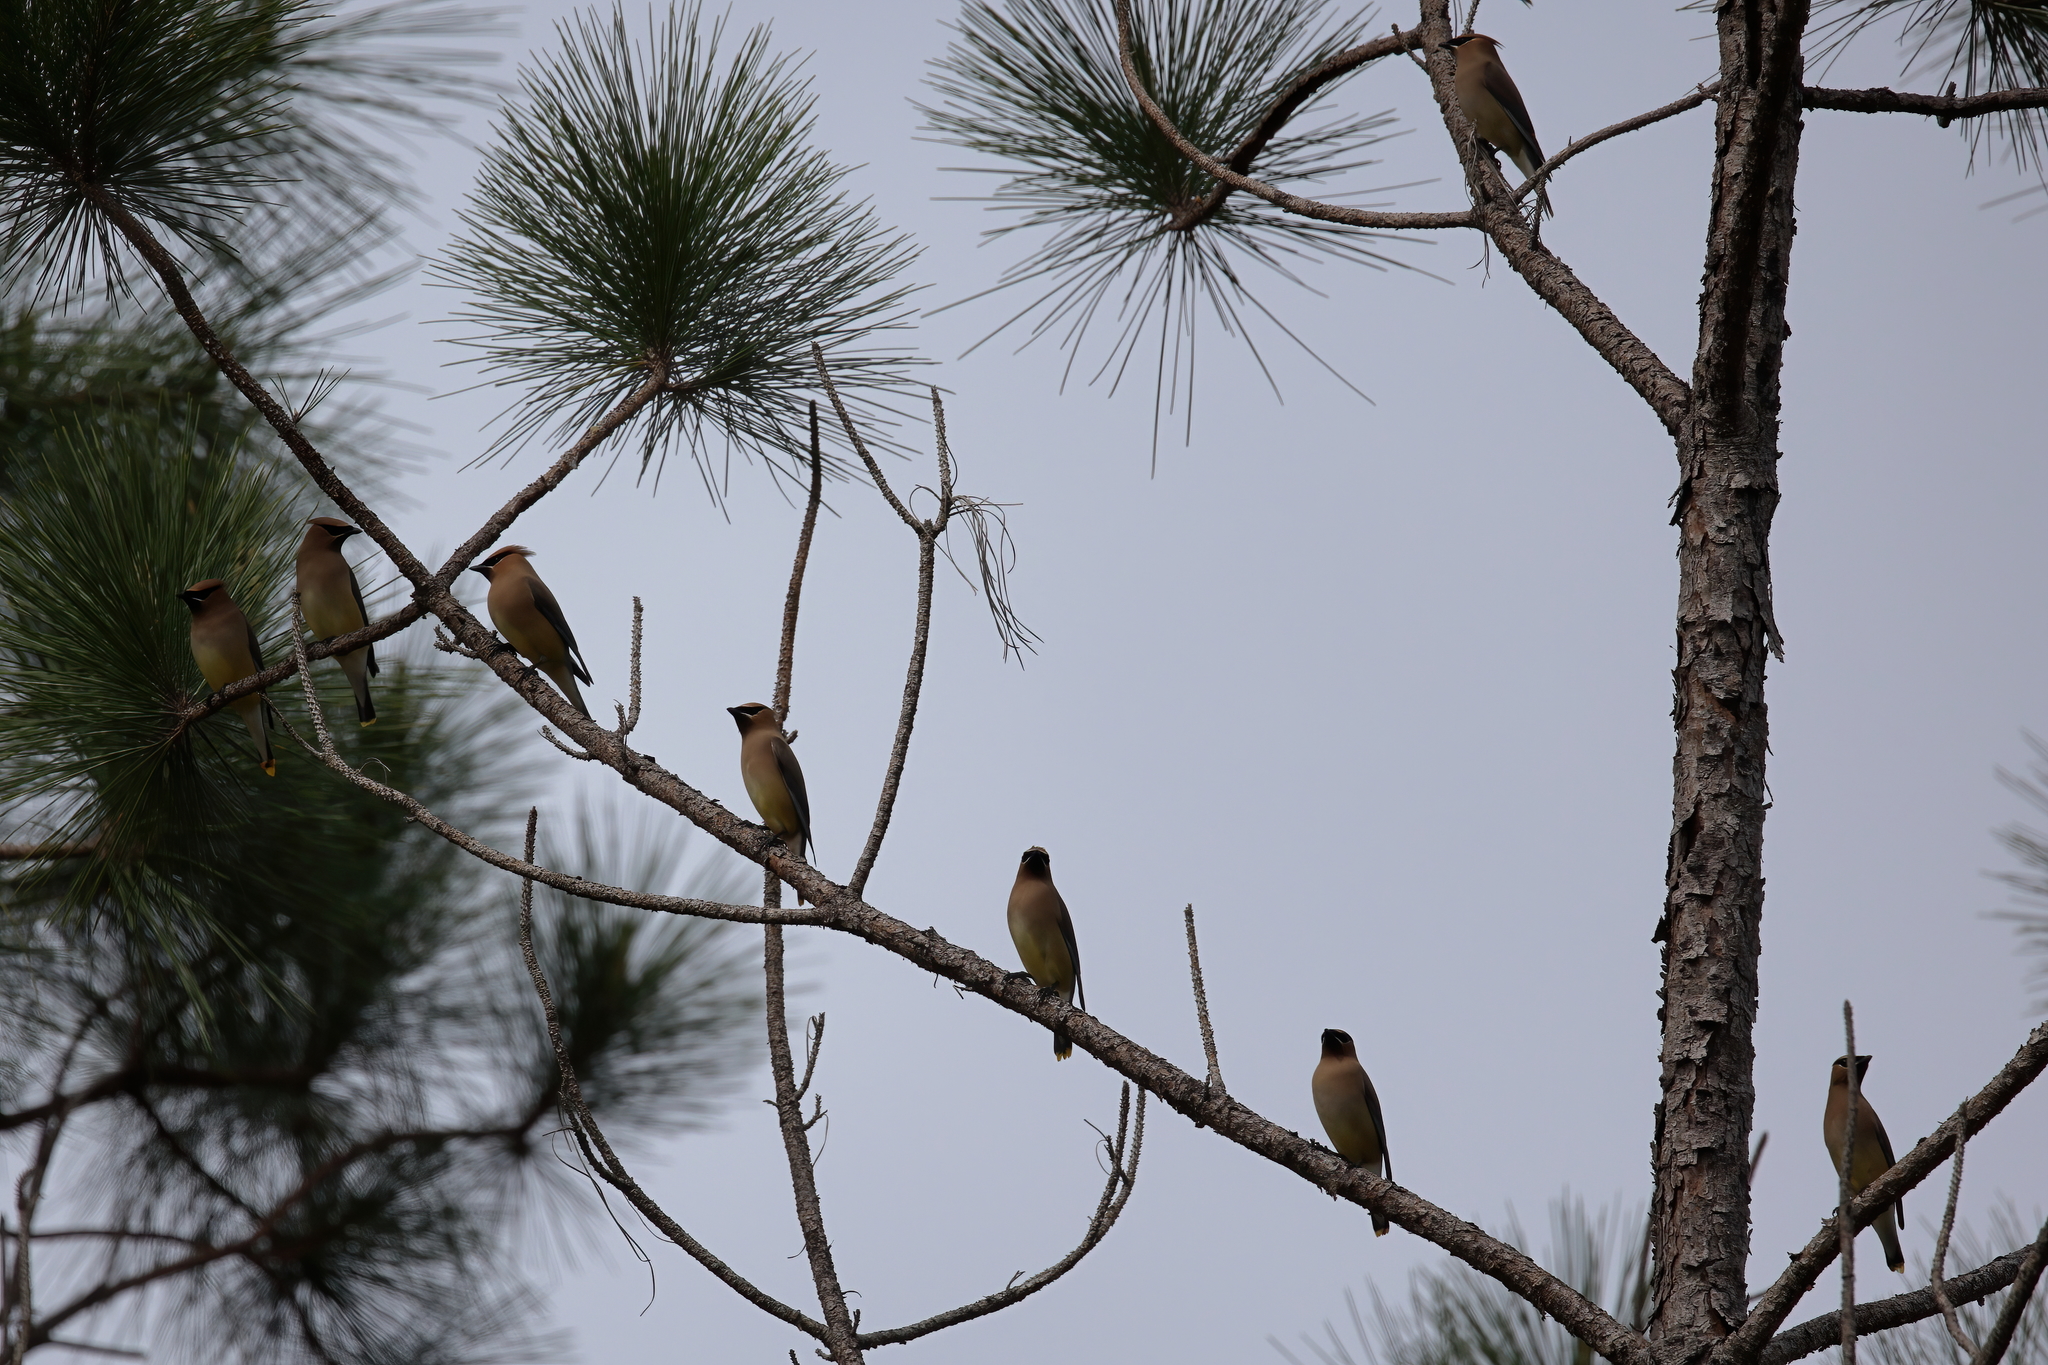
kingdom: Animalia
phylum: Chordata
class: Aves
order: Passeriformes
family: Bombycillidae
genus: Bombycilla
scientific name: Bombycilla cedrorum
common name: Cedar waxwing
